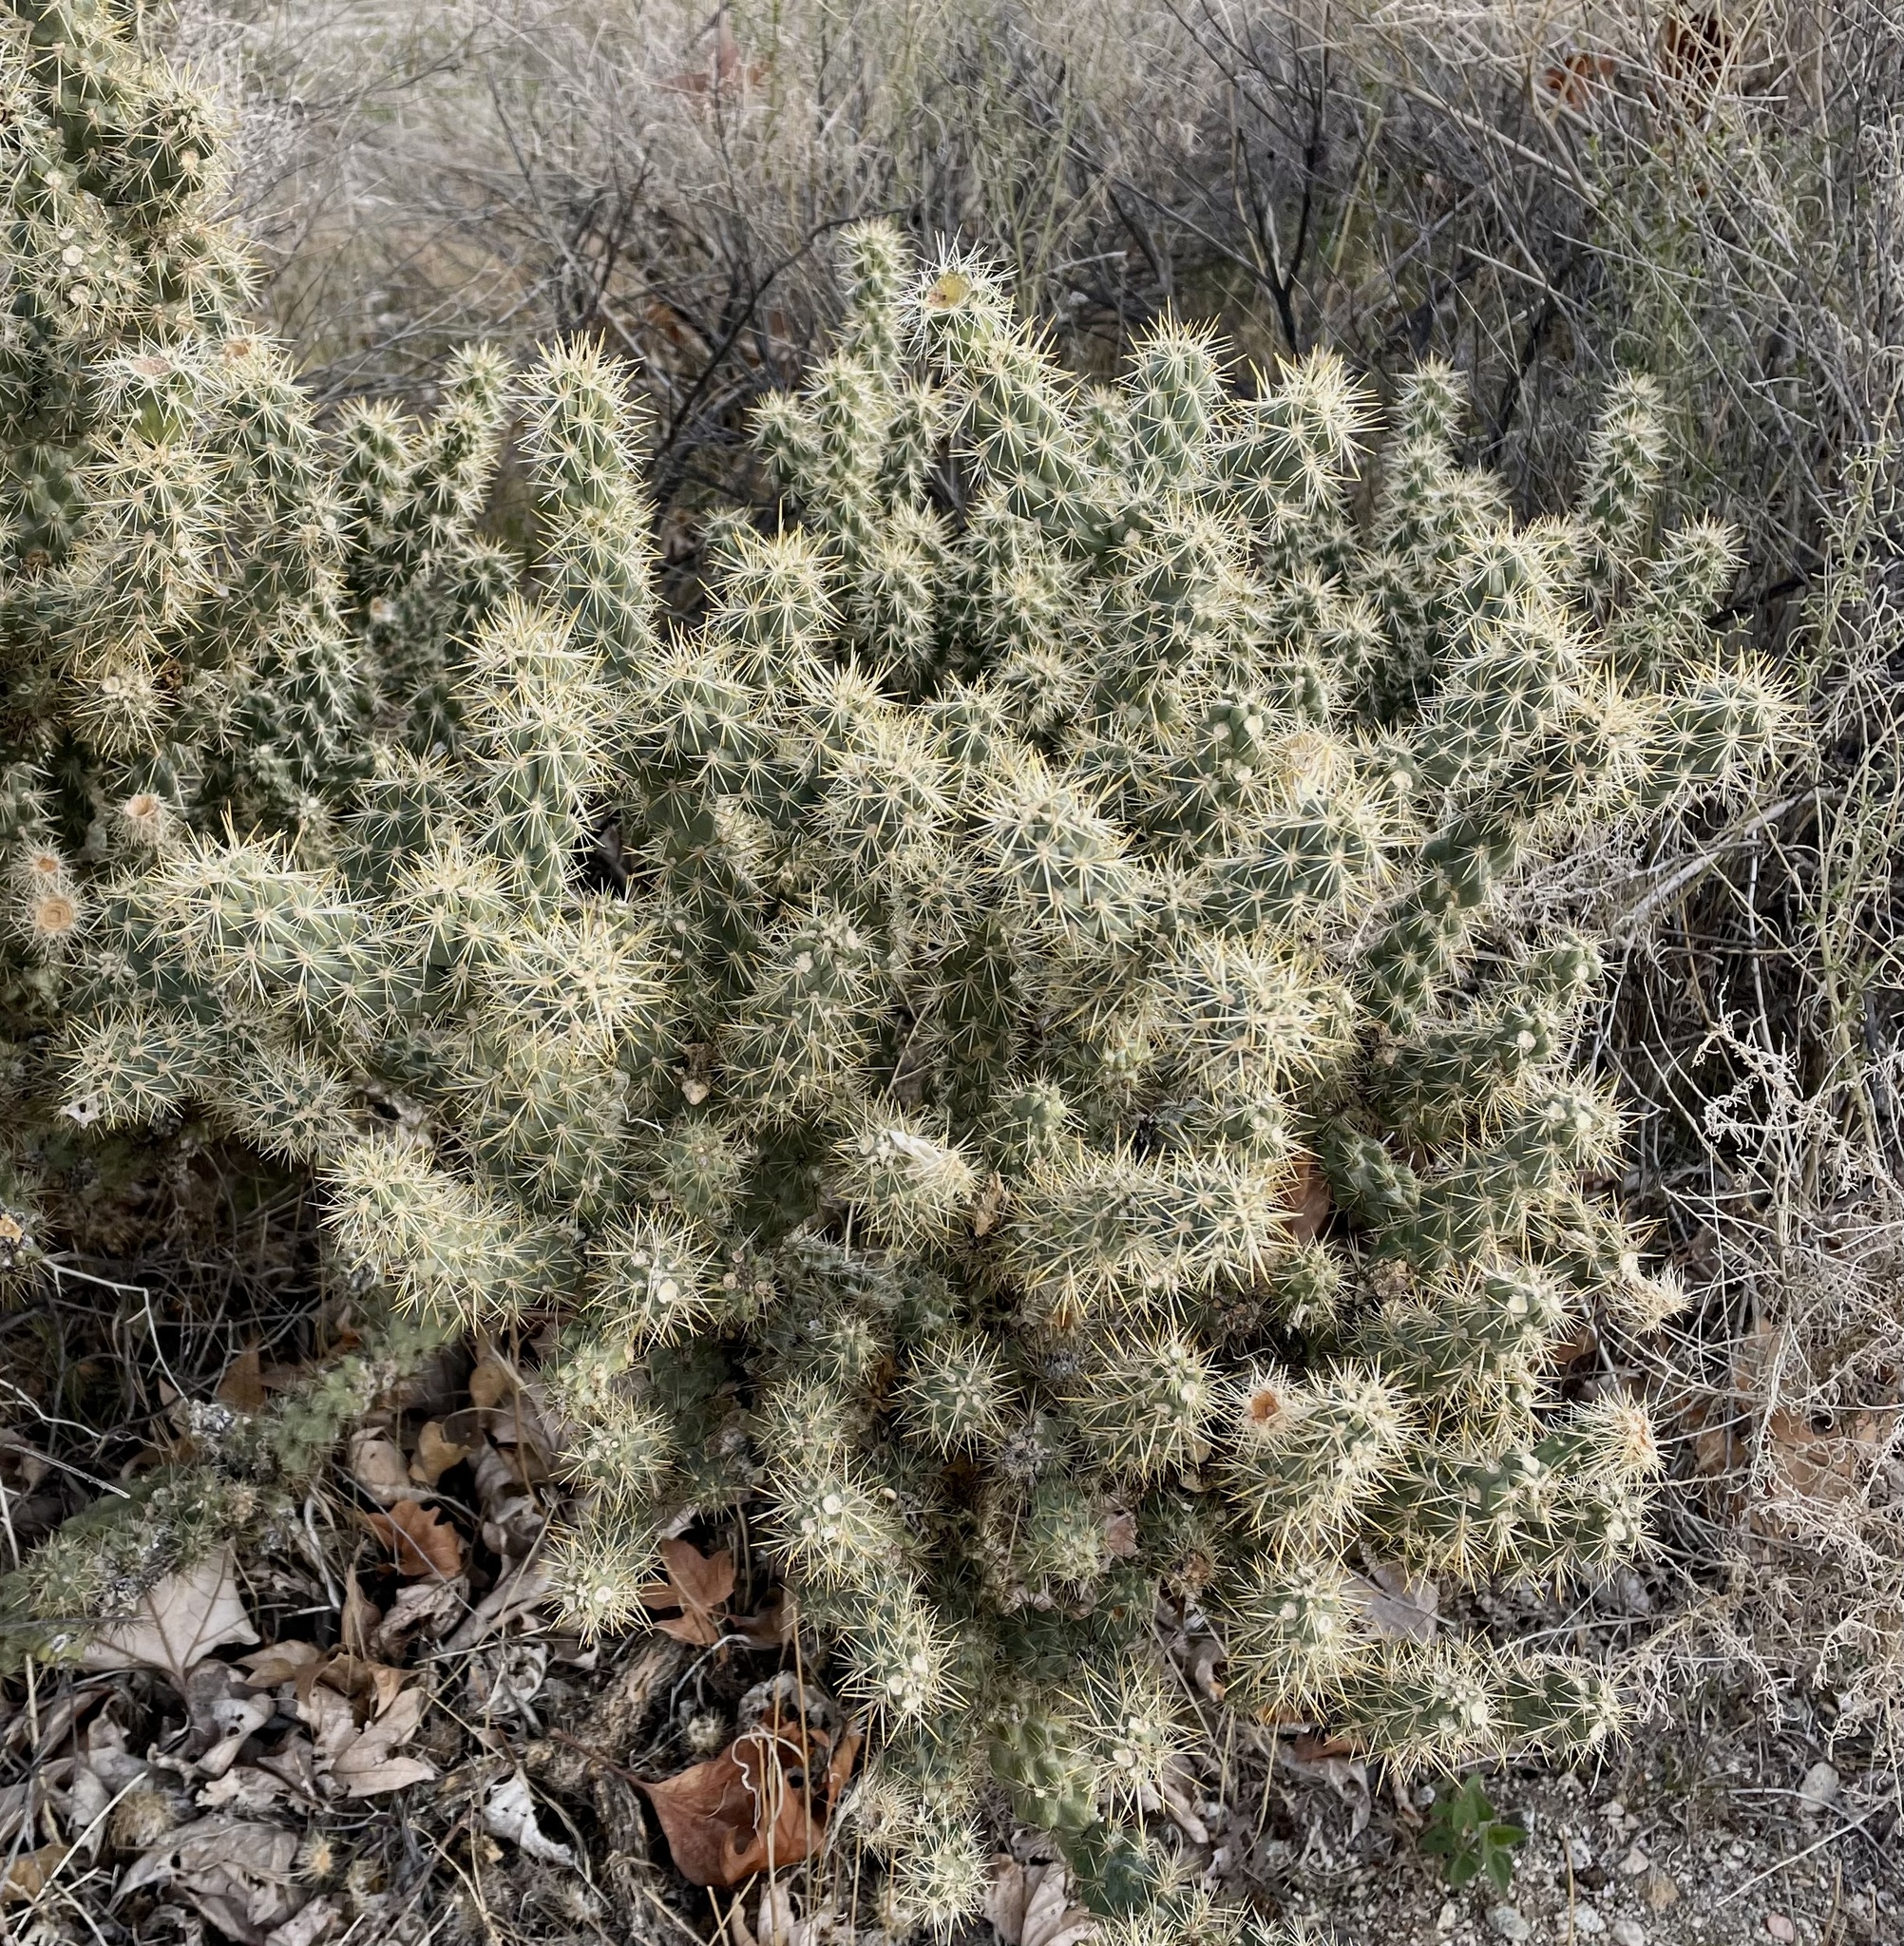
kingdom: Plantae
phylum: Tracheophyta
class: Magnoliopsida
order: Caryophyllales
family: Cactaceae
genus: Cylindropuntia
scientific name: Cylindropuntia echinocarpa
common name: Ground cholla
